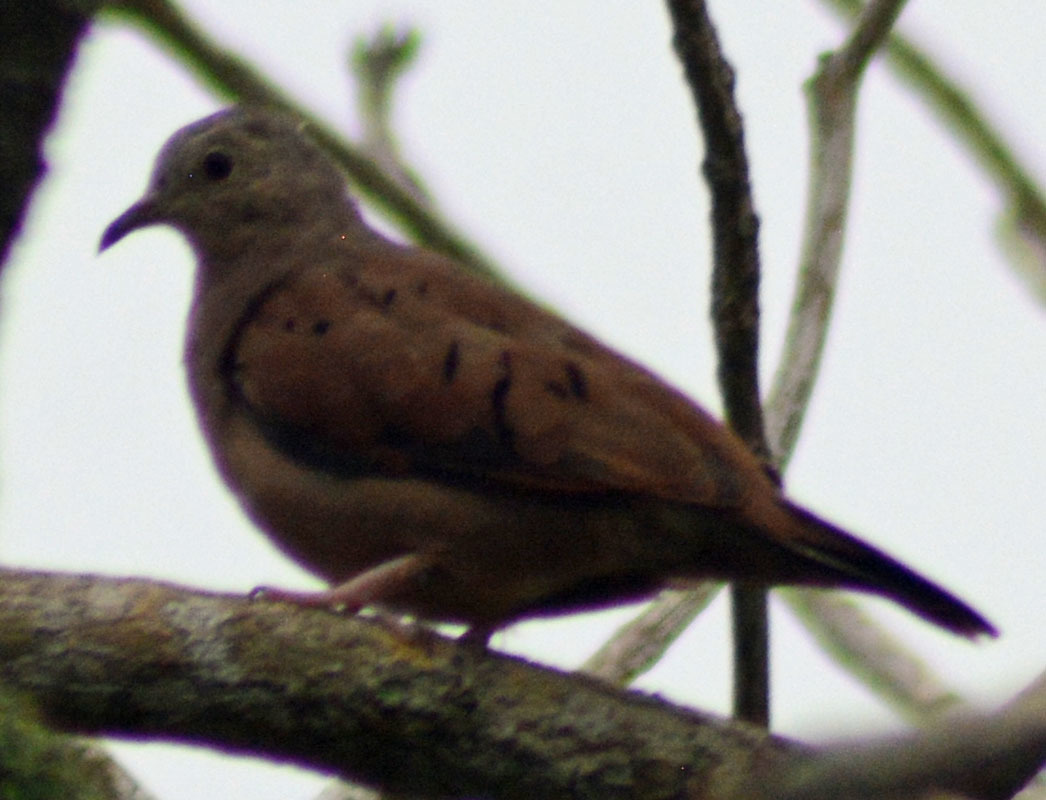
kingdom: Animalia
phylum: Chordata
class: Aves
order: Columbiformes
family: Columbidae
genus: Columbina
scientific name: Columbina talpacoti
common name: Ruddy ground dove
